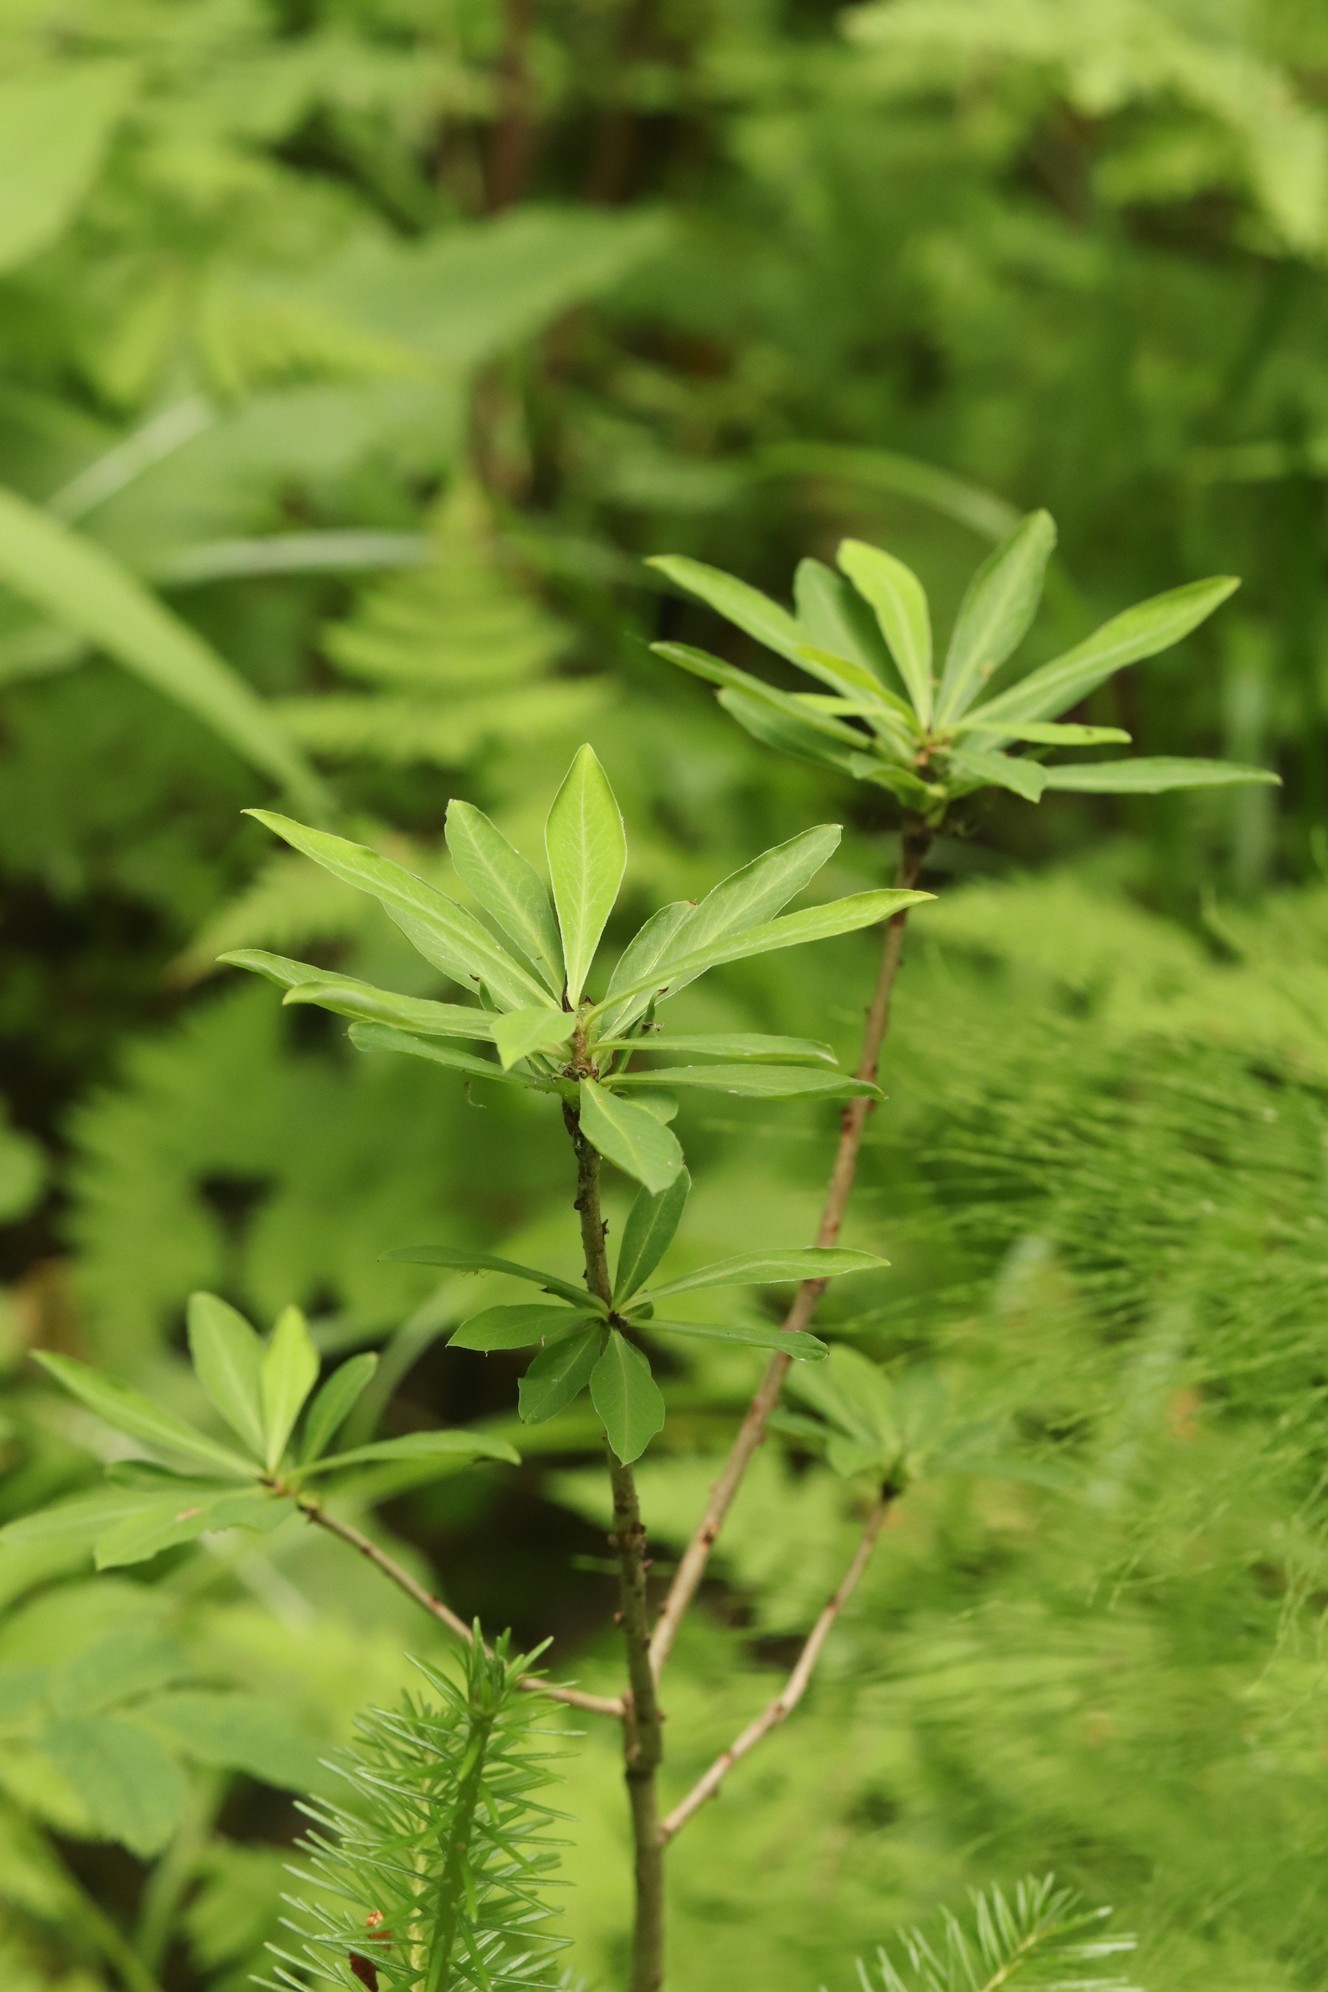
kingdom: Plantae
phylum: Tracheophyta
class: Magnoliopsida
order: Malvales
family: Thymelaeaceae
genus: Daphne
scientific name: Daphne mezereum
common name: Mezereon
